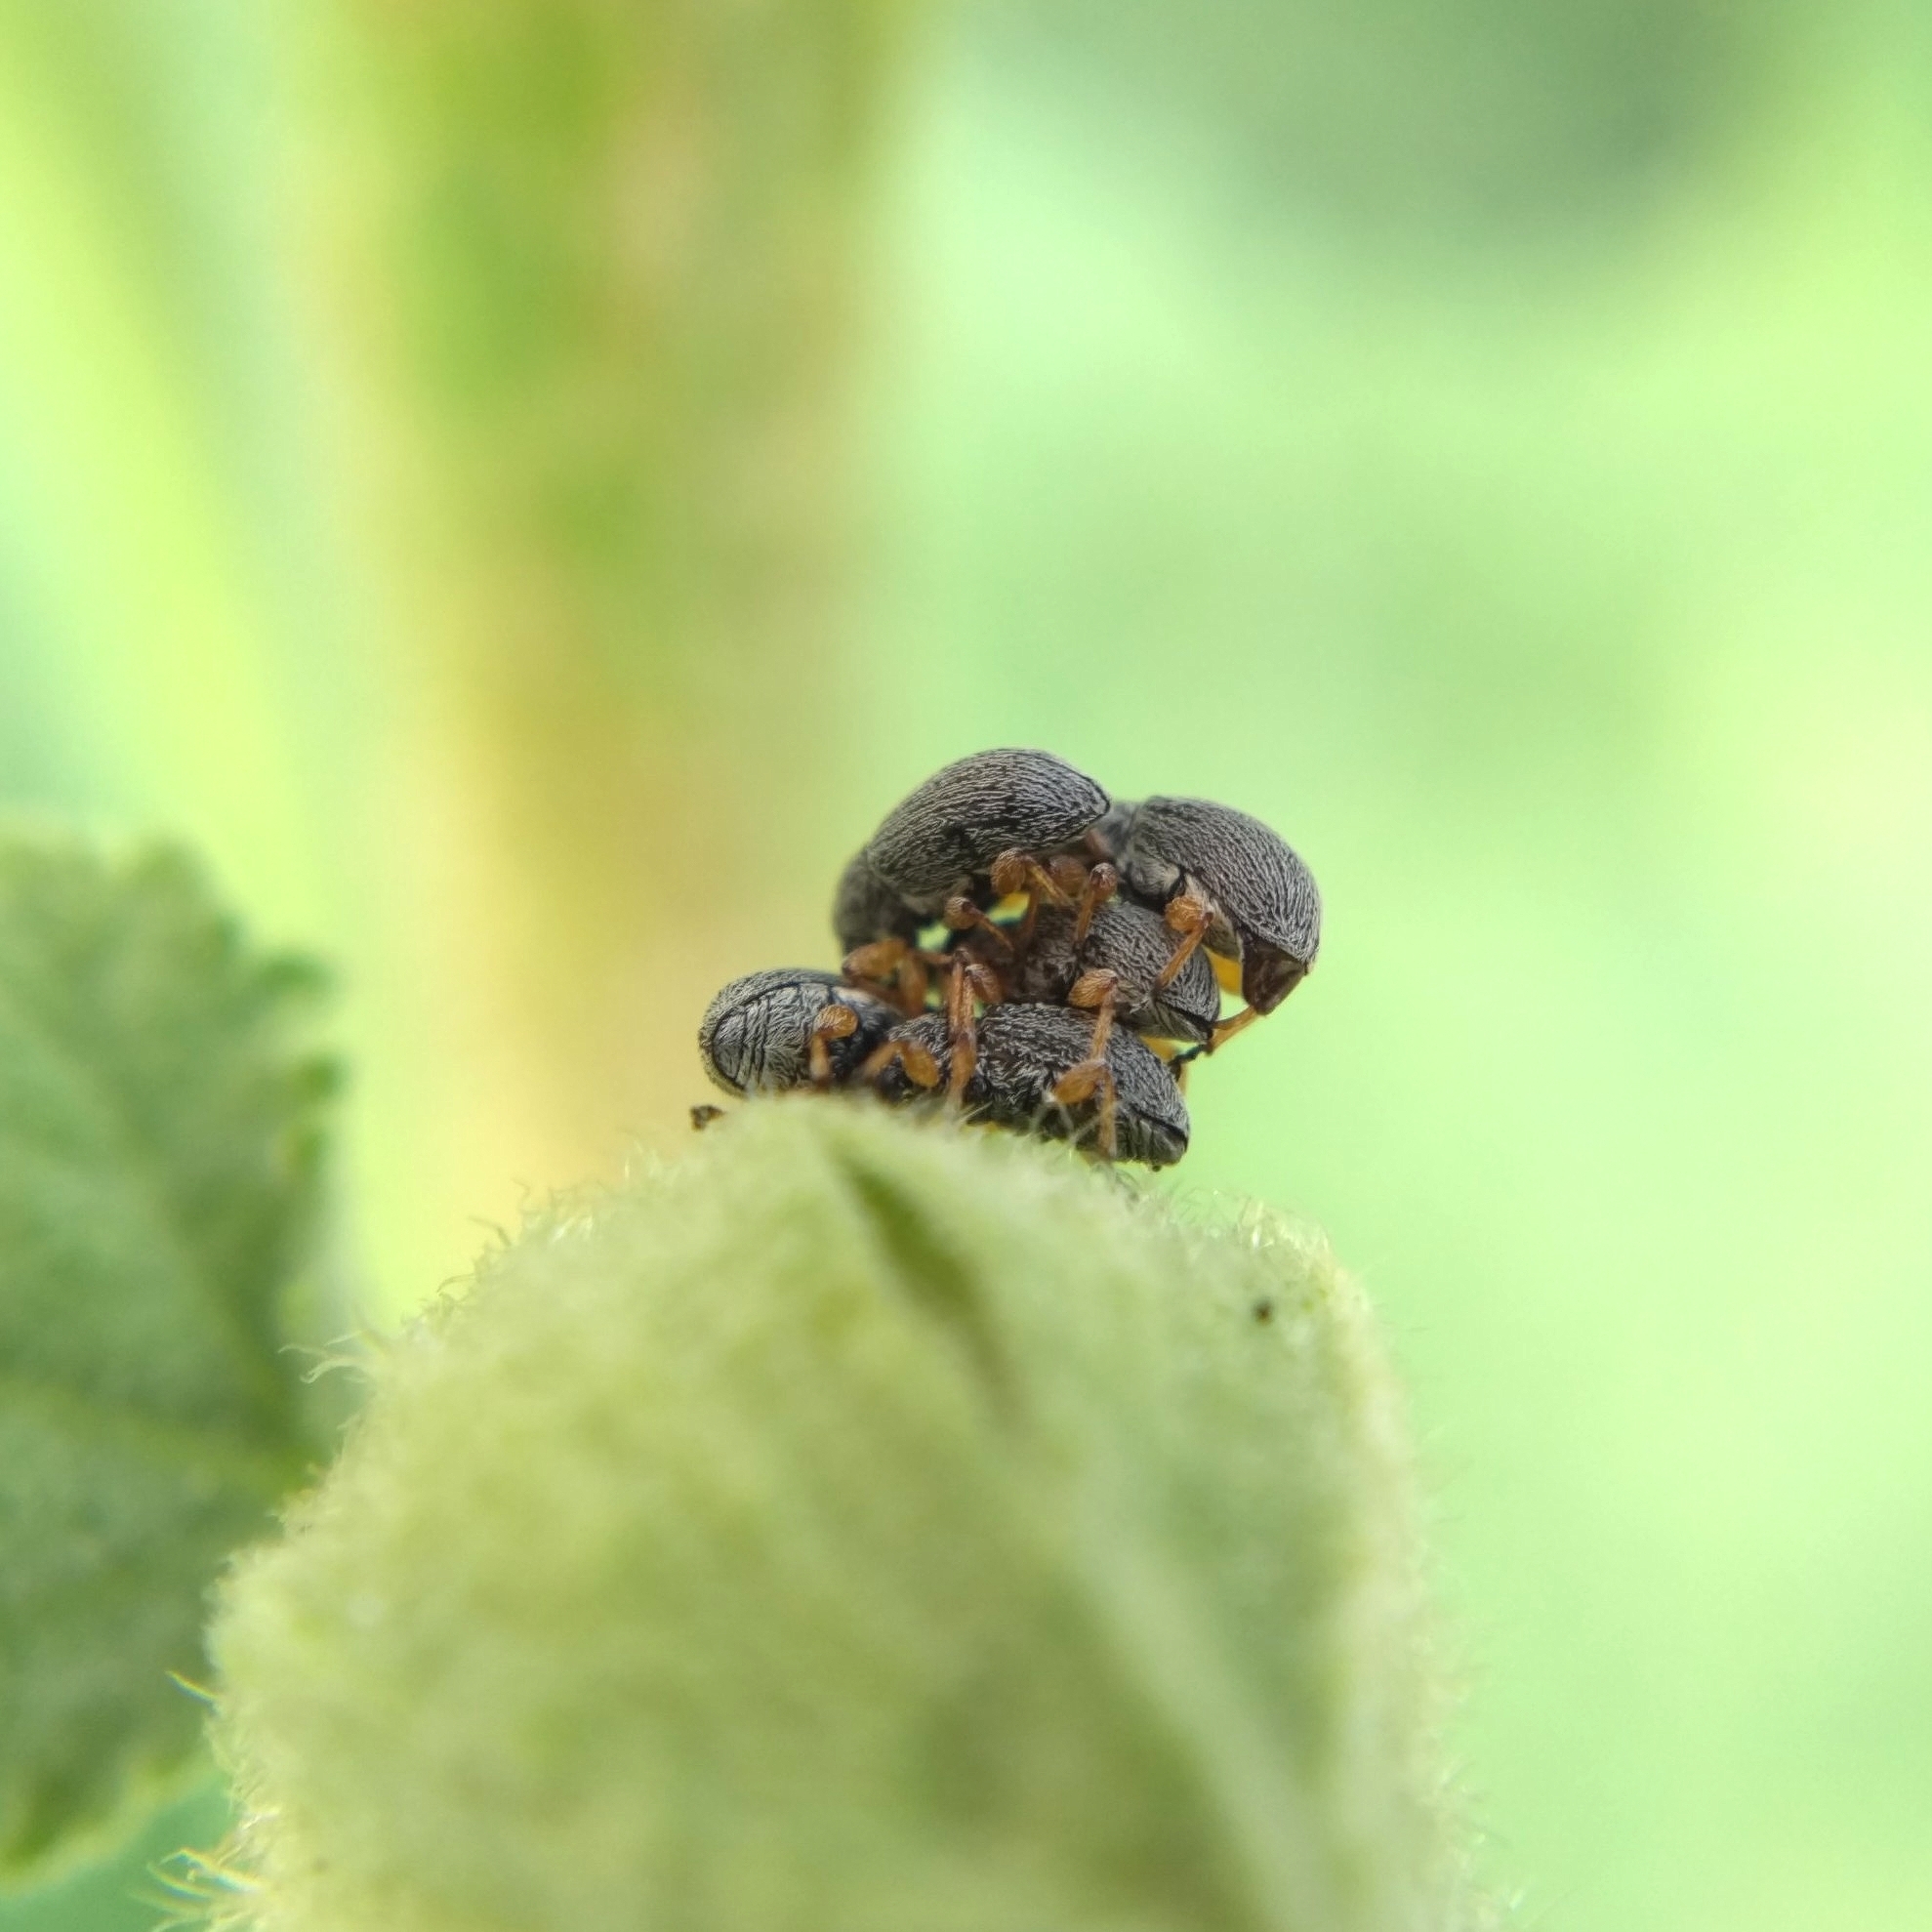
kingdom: Animalia
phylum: Arthropoda
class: Insecta
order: Coleoptera
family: Brentidae
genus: Rhopalapion
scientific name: Rhopalapion longirostre
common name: Hollyhock weevil
